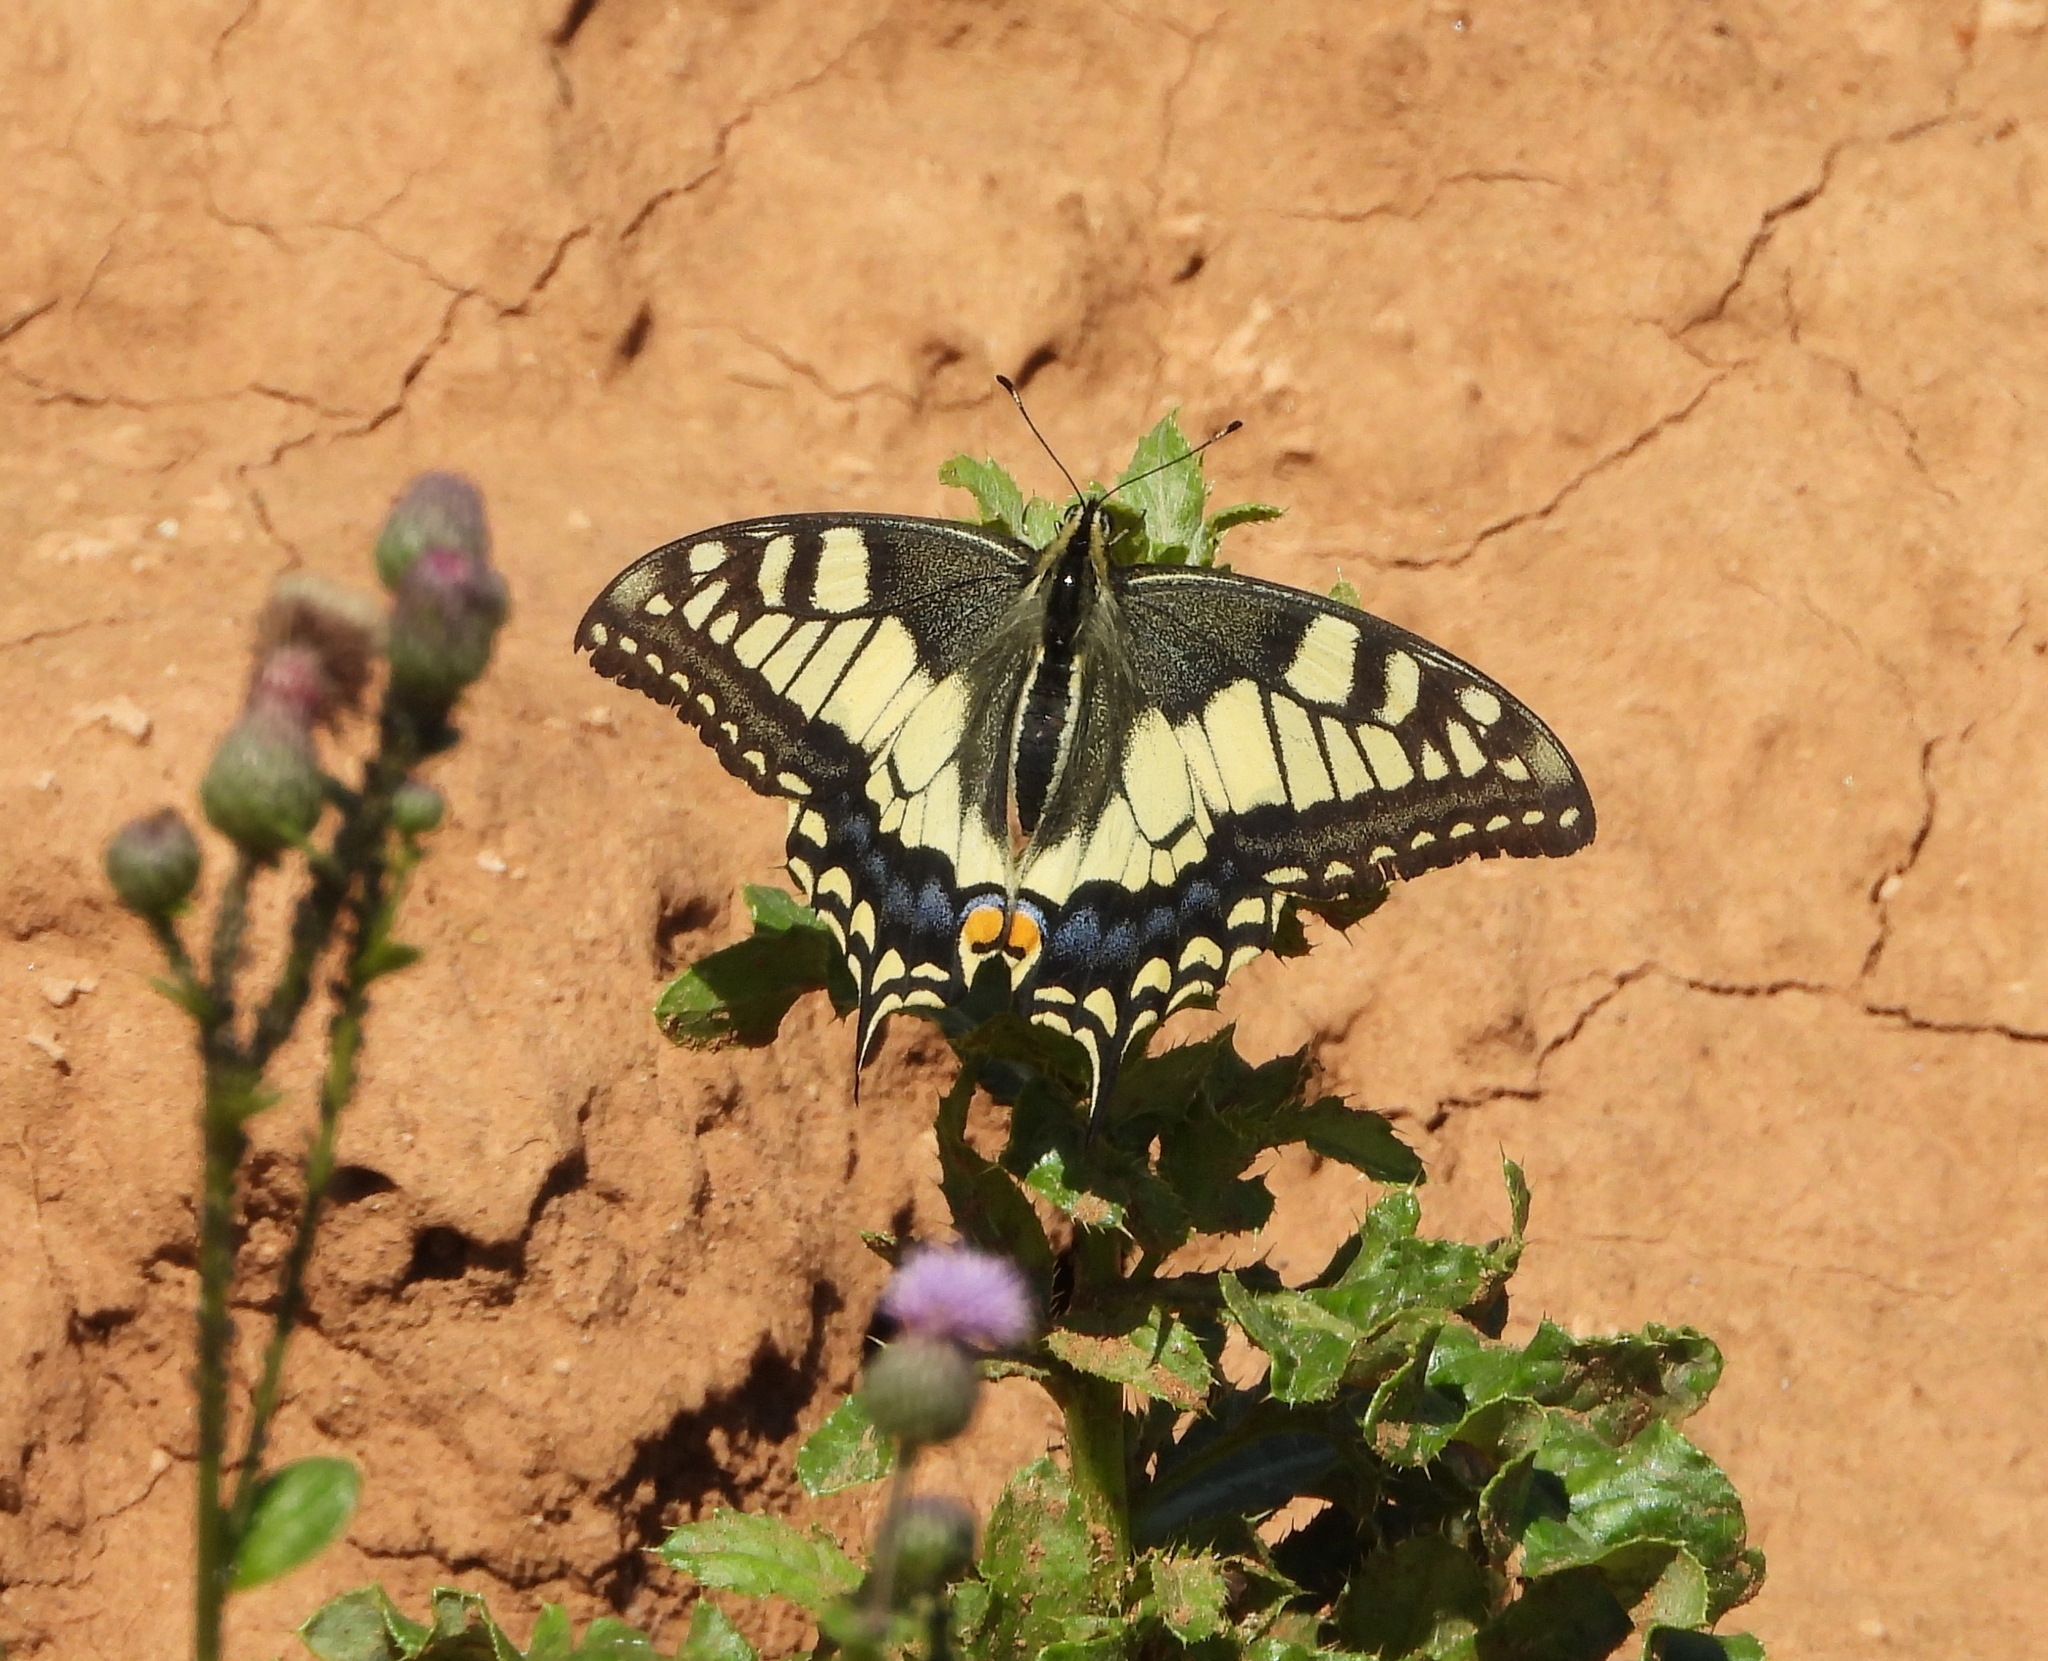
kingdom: Animalia
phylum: Arthropoda
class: Insecta
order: Lepidoptera
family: Papilionidae
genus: Papilio
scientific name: Papilio machaon
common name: Swallowtail
